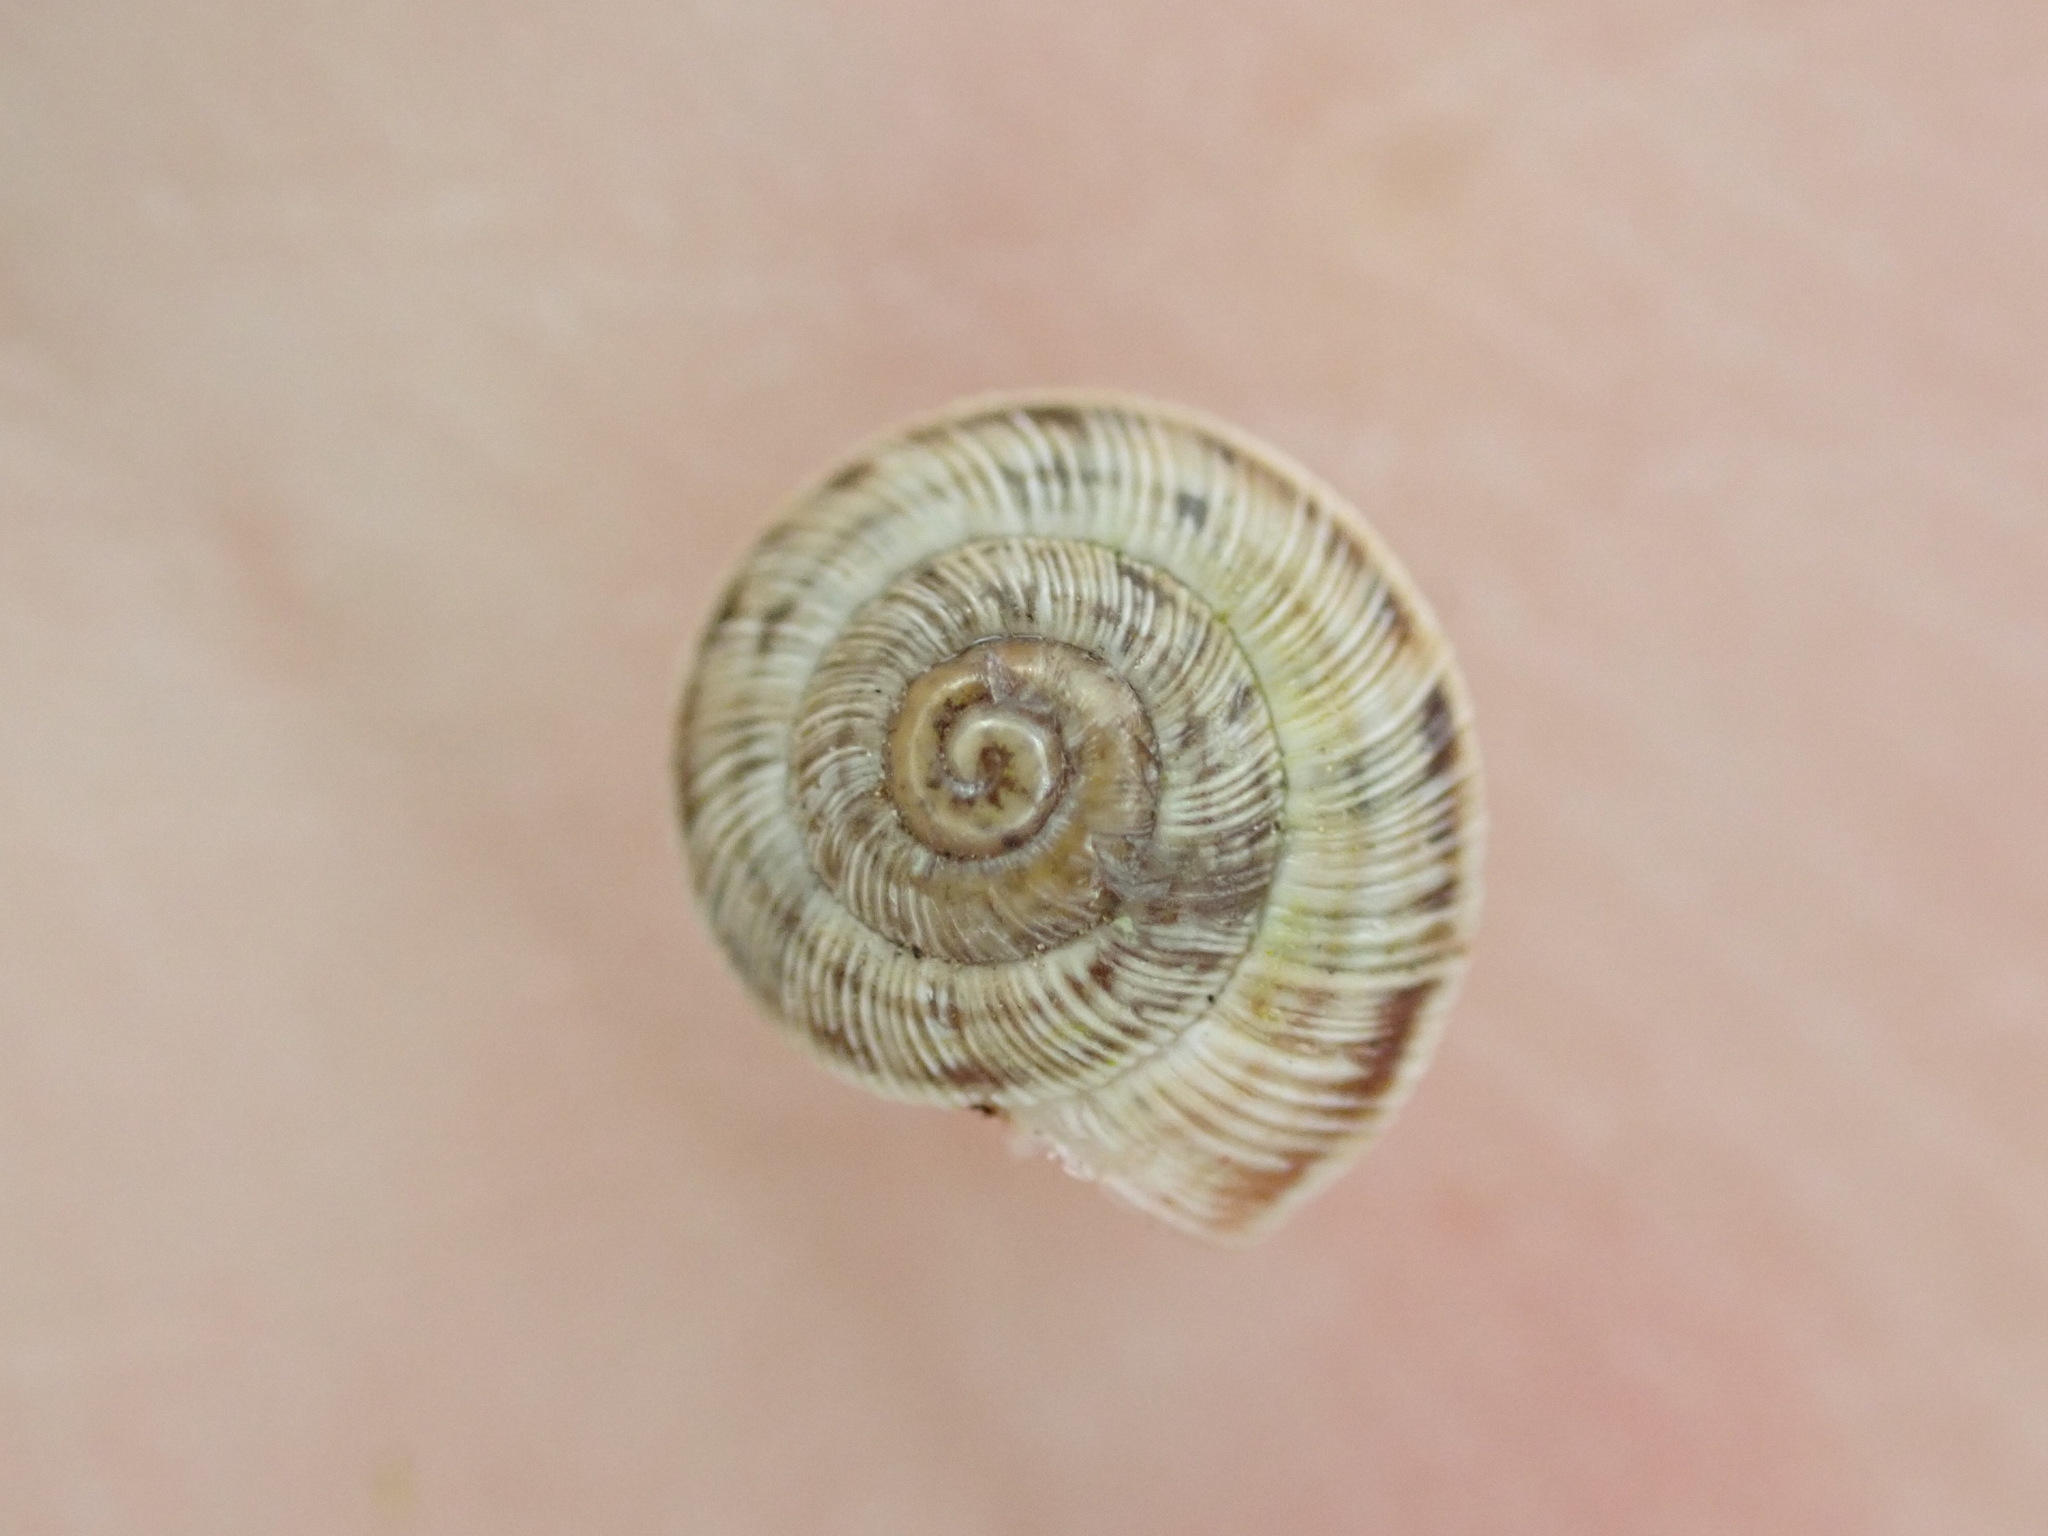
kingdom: Animalia
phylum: Mollusca
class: Gastropoda
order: Stylommatophora
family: Geomitridae
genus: Candidula
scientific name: Candidula rugosiuscula
